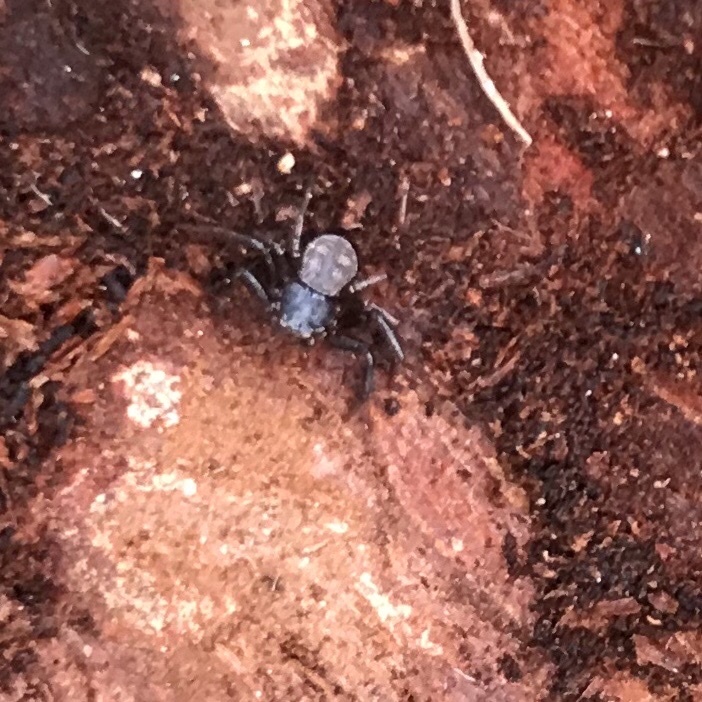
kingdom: Animalia
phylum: Arthropoda
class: Arachnida
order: Araneae
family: Thomisidae
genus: Coriarachne
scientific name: Coriarachne depressa
